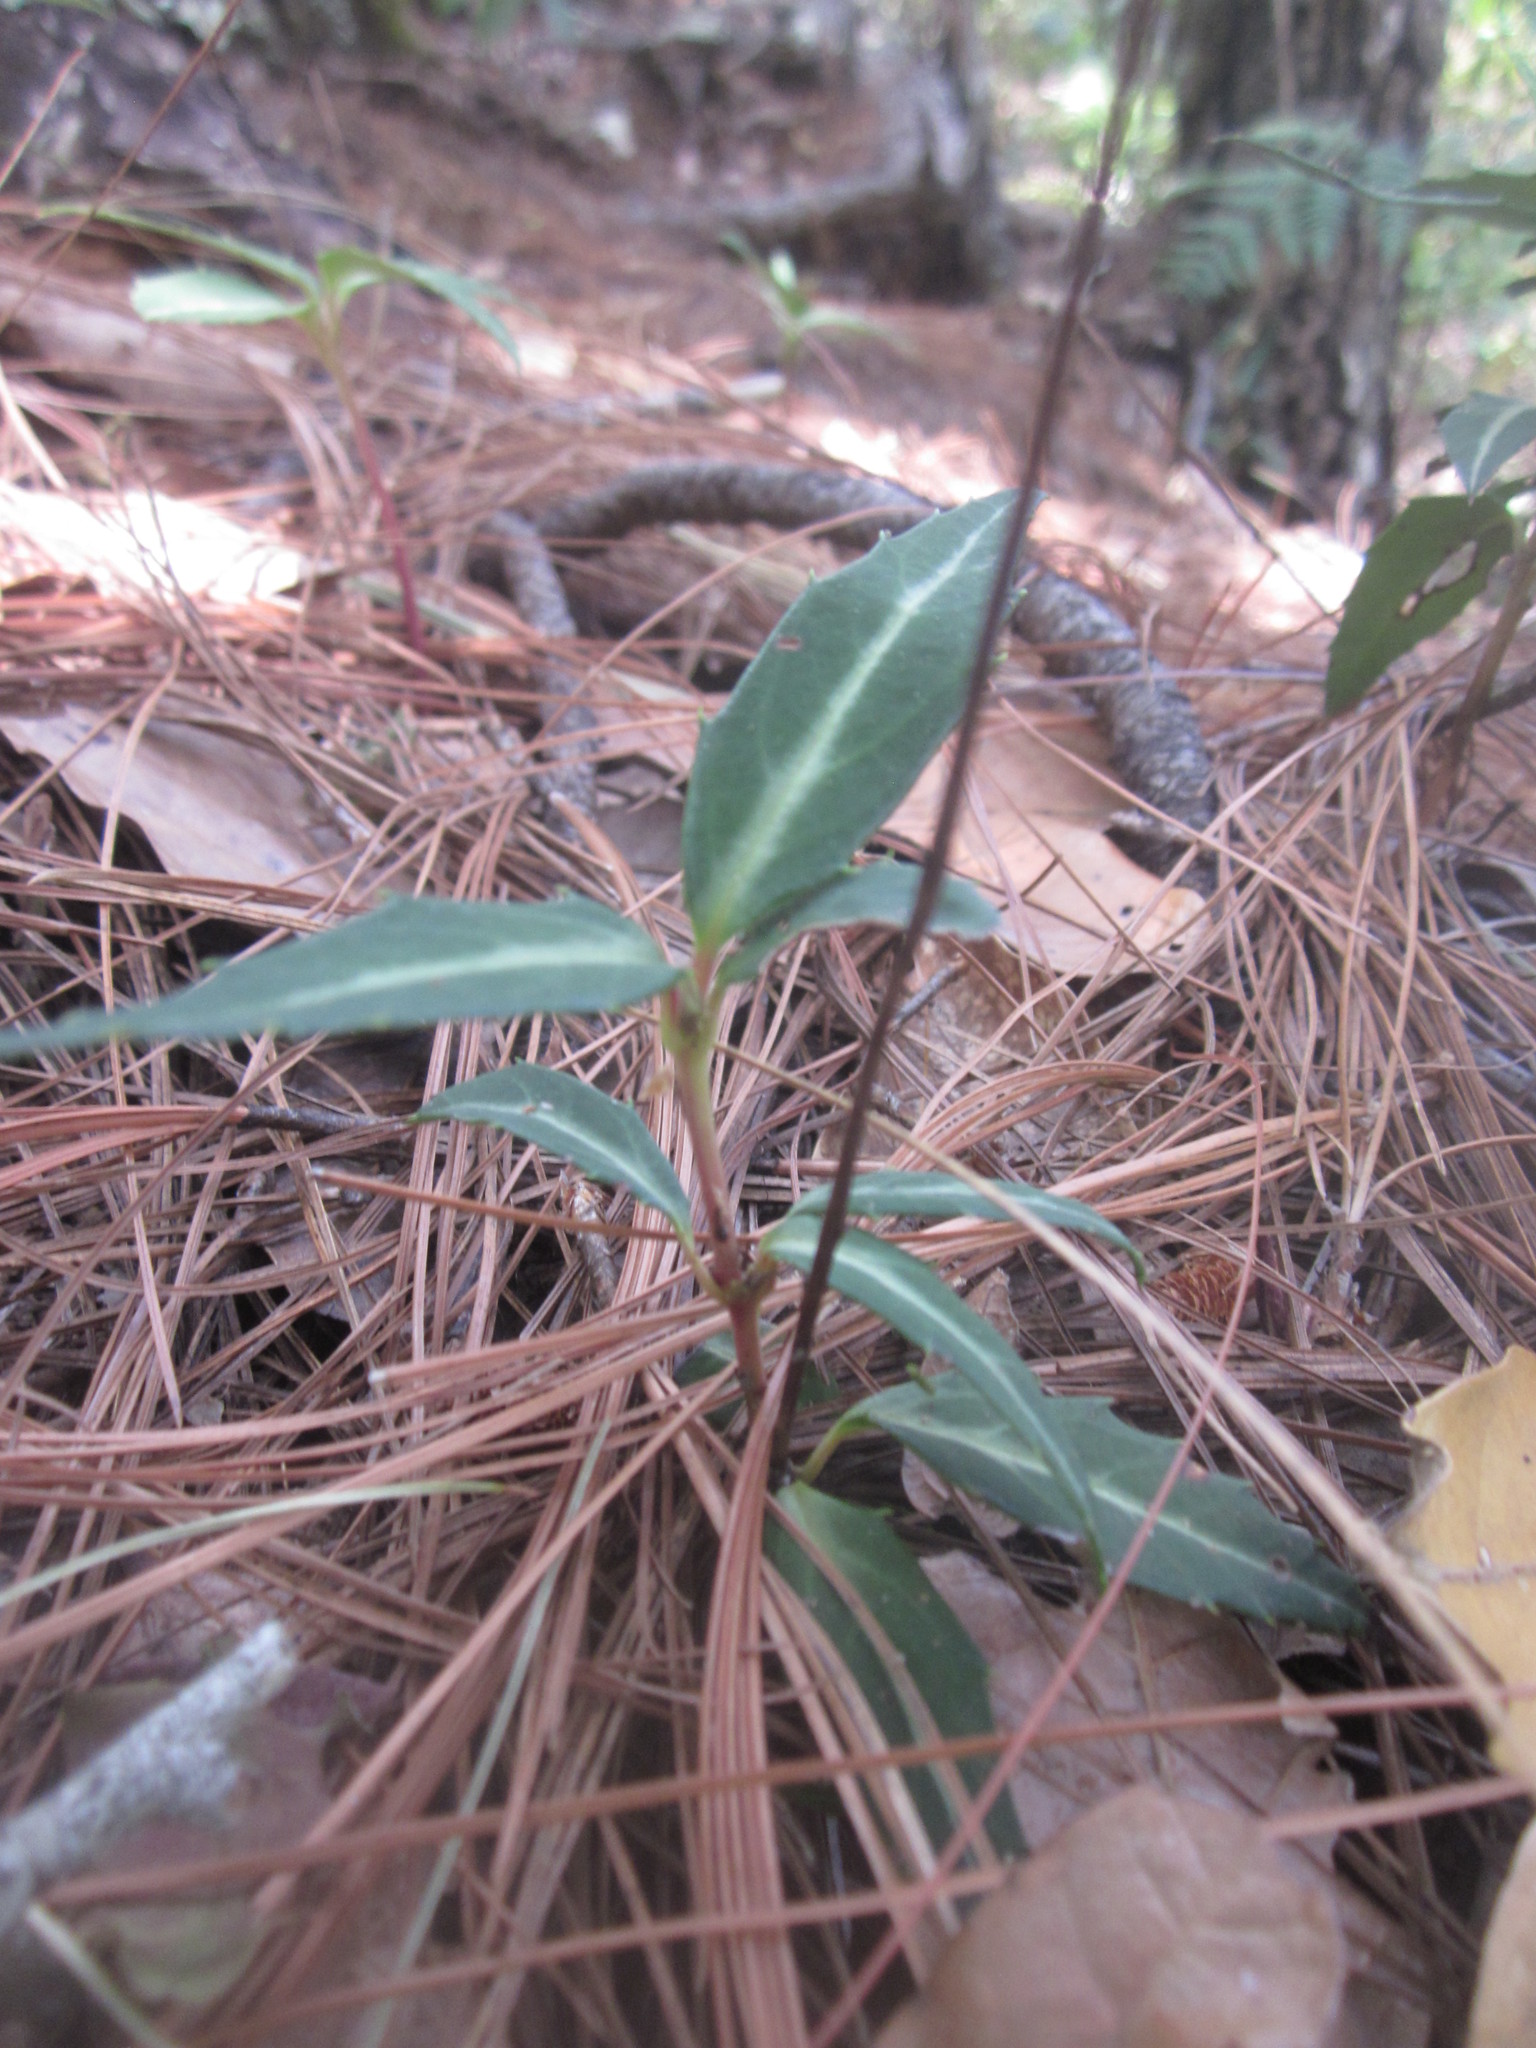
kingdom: Plantae
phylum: Tracheophyta
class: Magnoliopsida
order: Ericales
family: Ericaceae
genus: Chimaphila
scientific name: Chimaphila maculata
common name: Spotted pipsissewa
